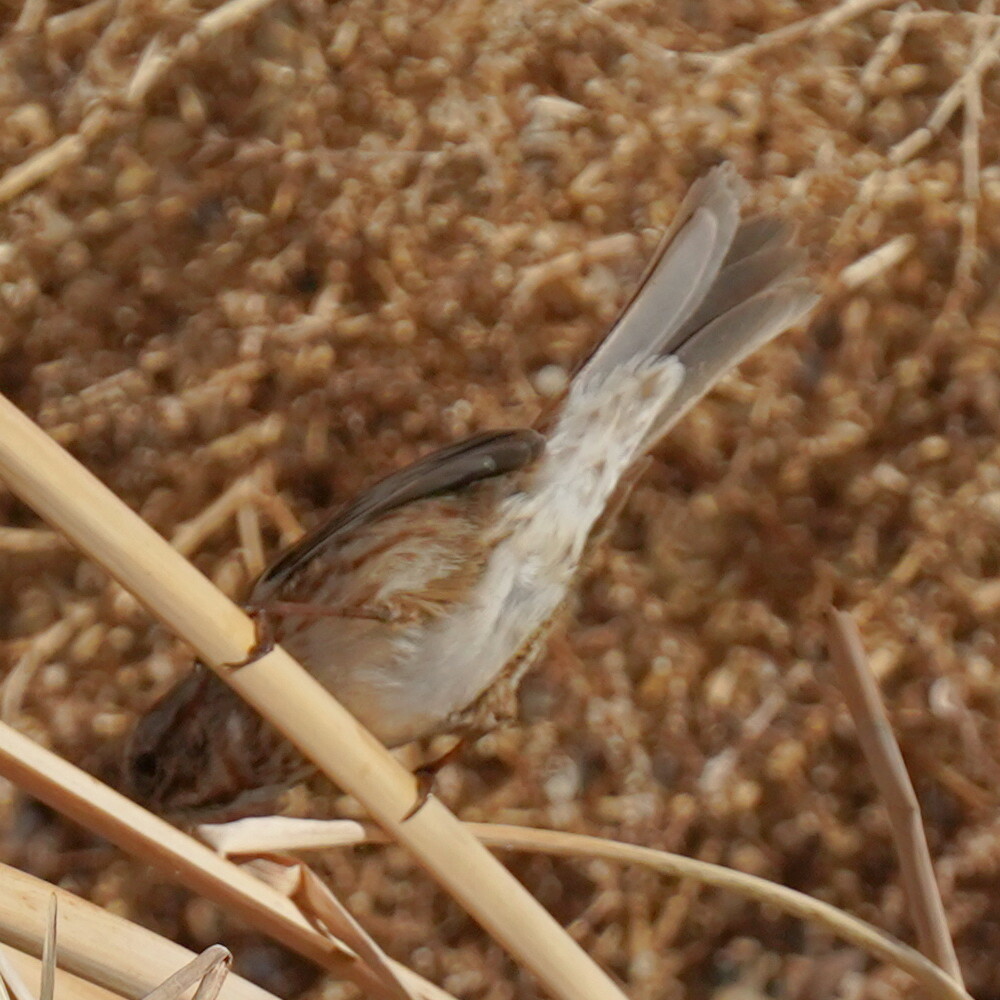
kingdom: Animalia
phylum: Chordata
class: Aves
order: Passeriformes
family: Passerellidae
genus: Melospiza
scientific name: Melospiza melodia
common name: Song sparrow
